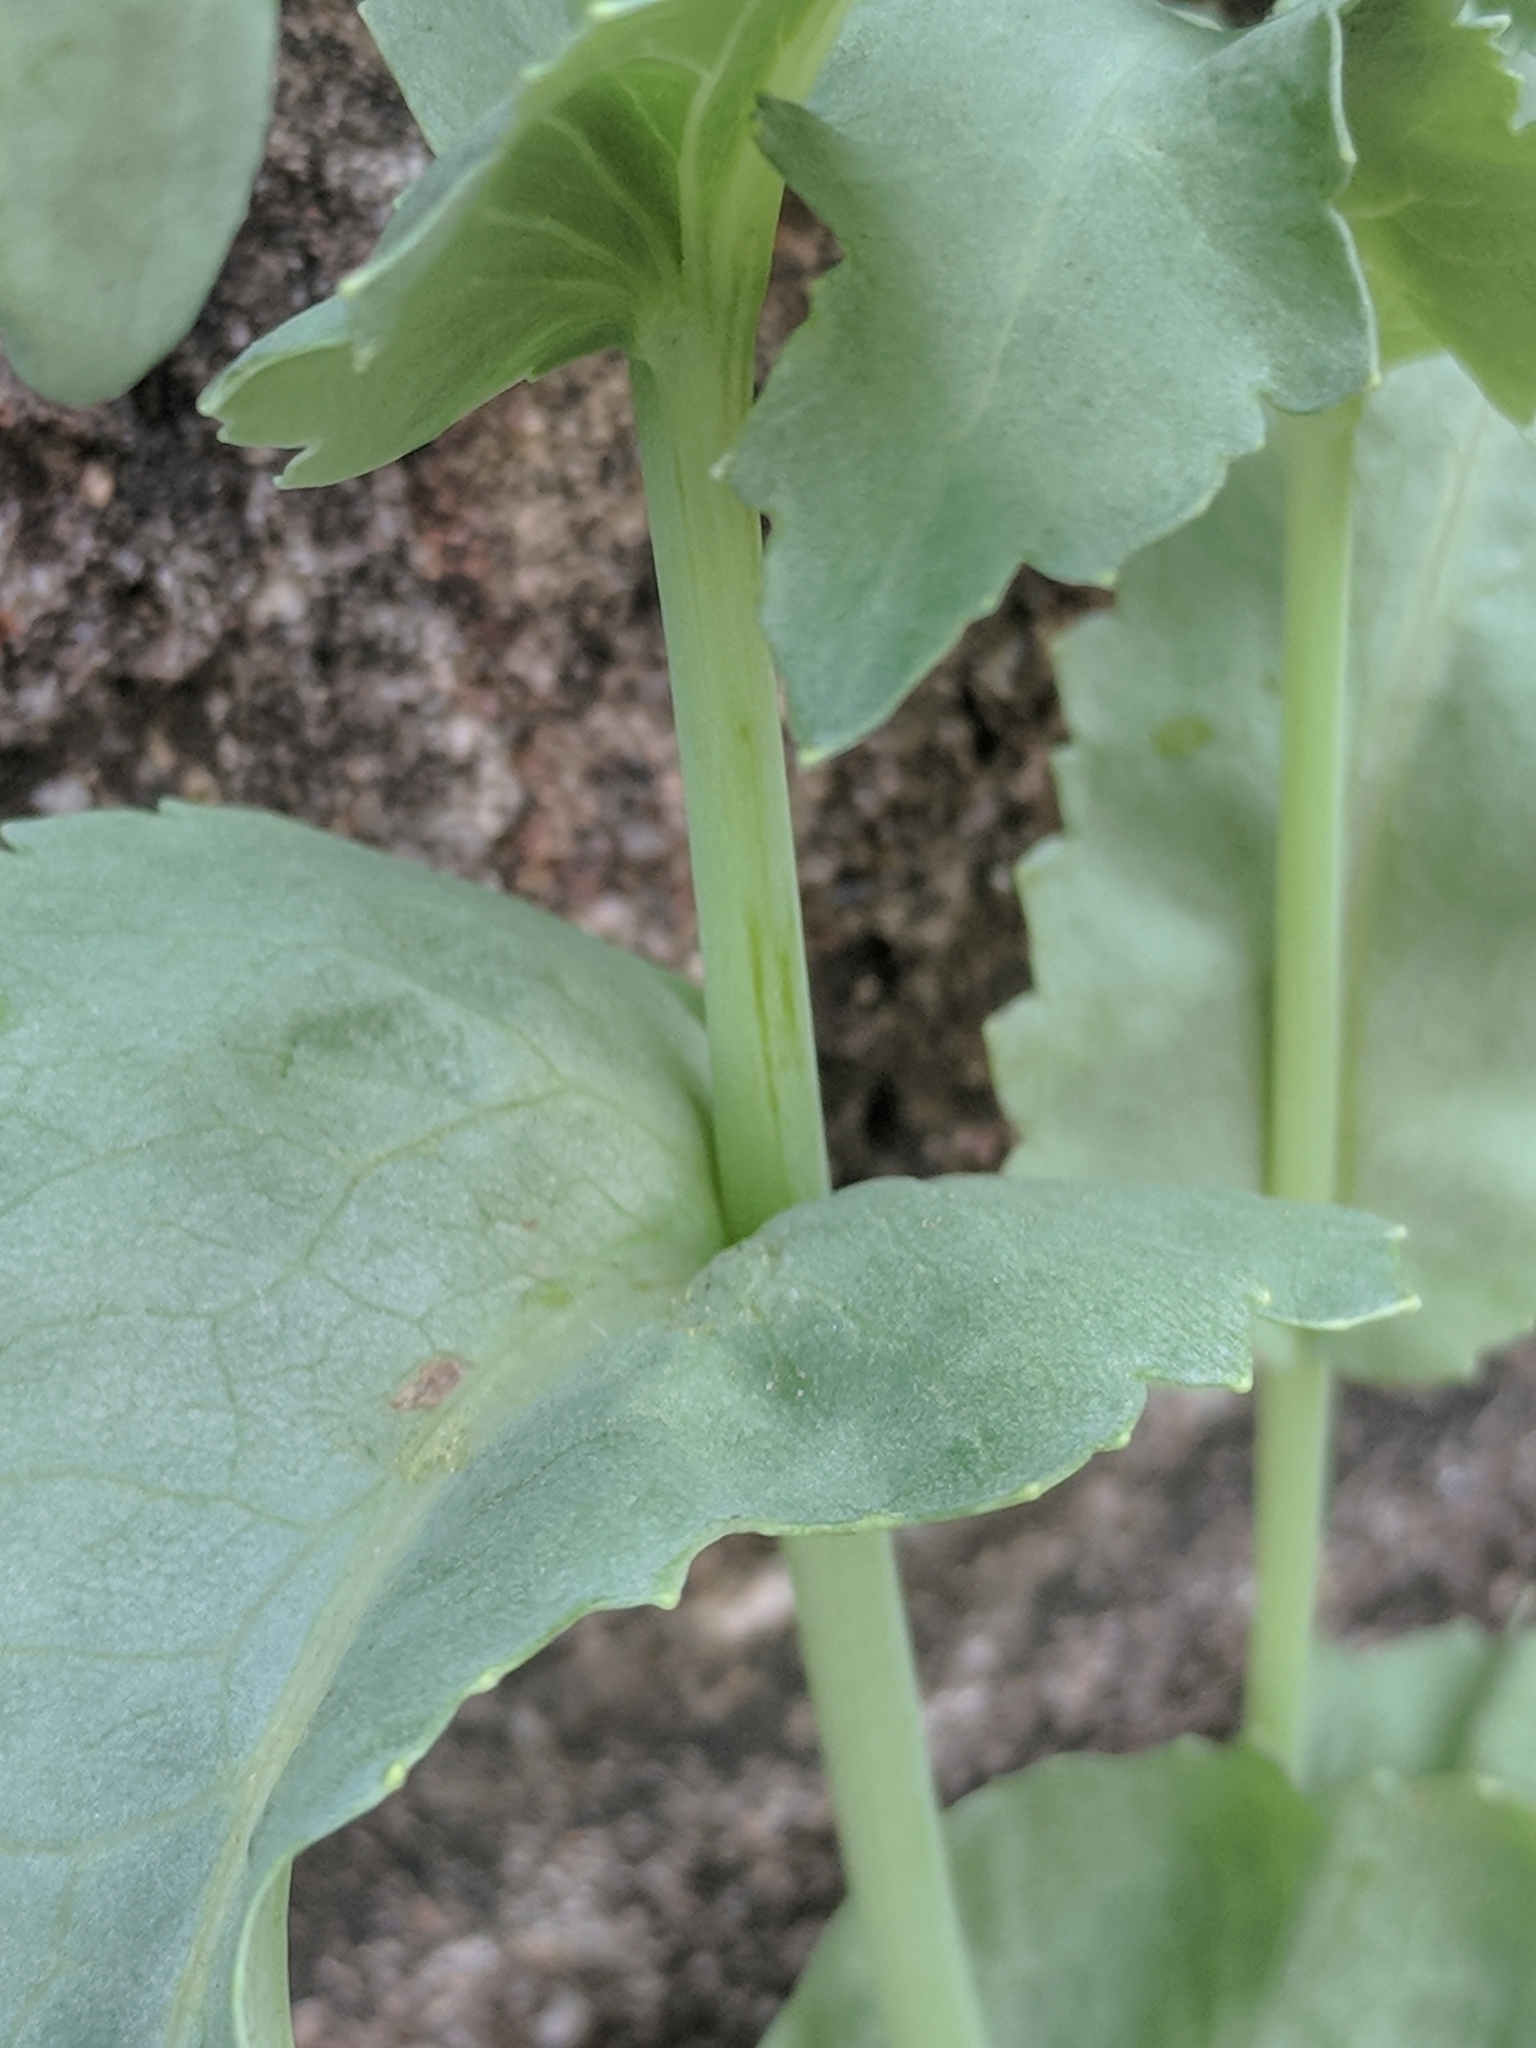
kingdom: Plantae
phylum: Tracheophyta
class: Magnoliopsida
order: Ranunculales
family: Papaveraceae
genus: Papaver
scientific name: Papaver somniferum
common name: Opium poppy
